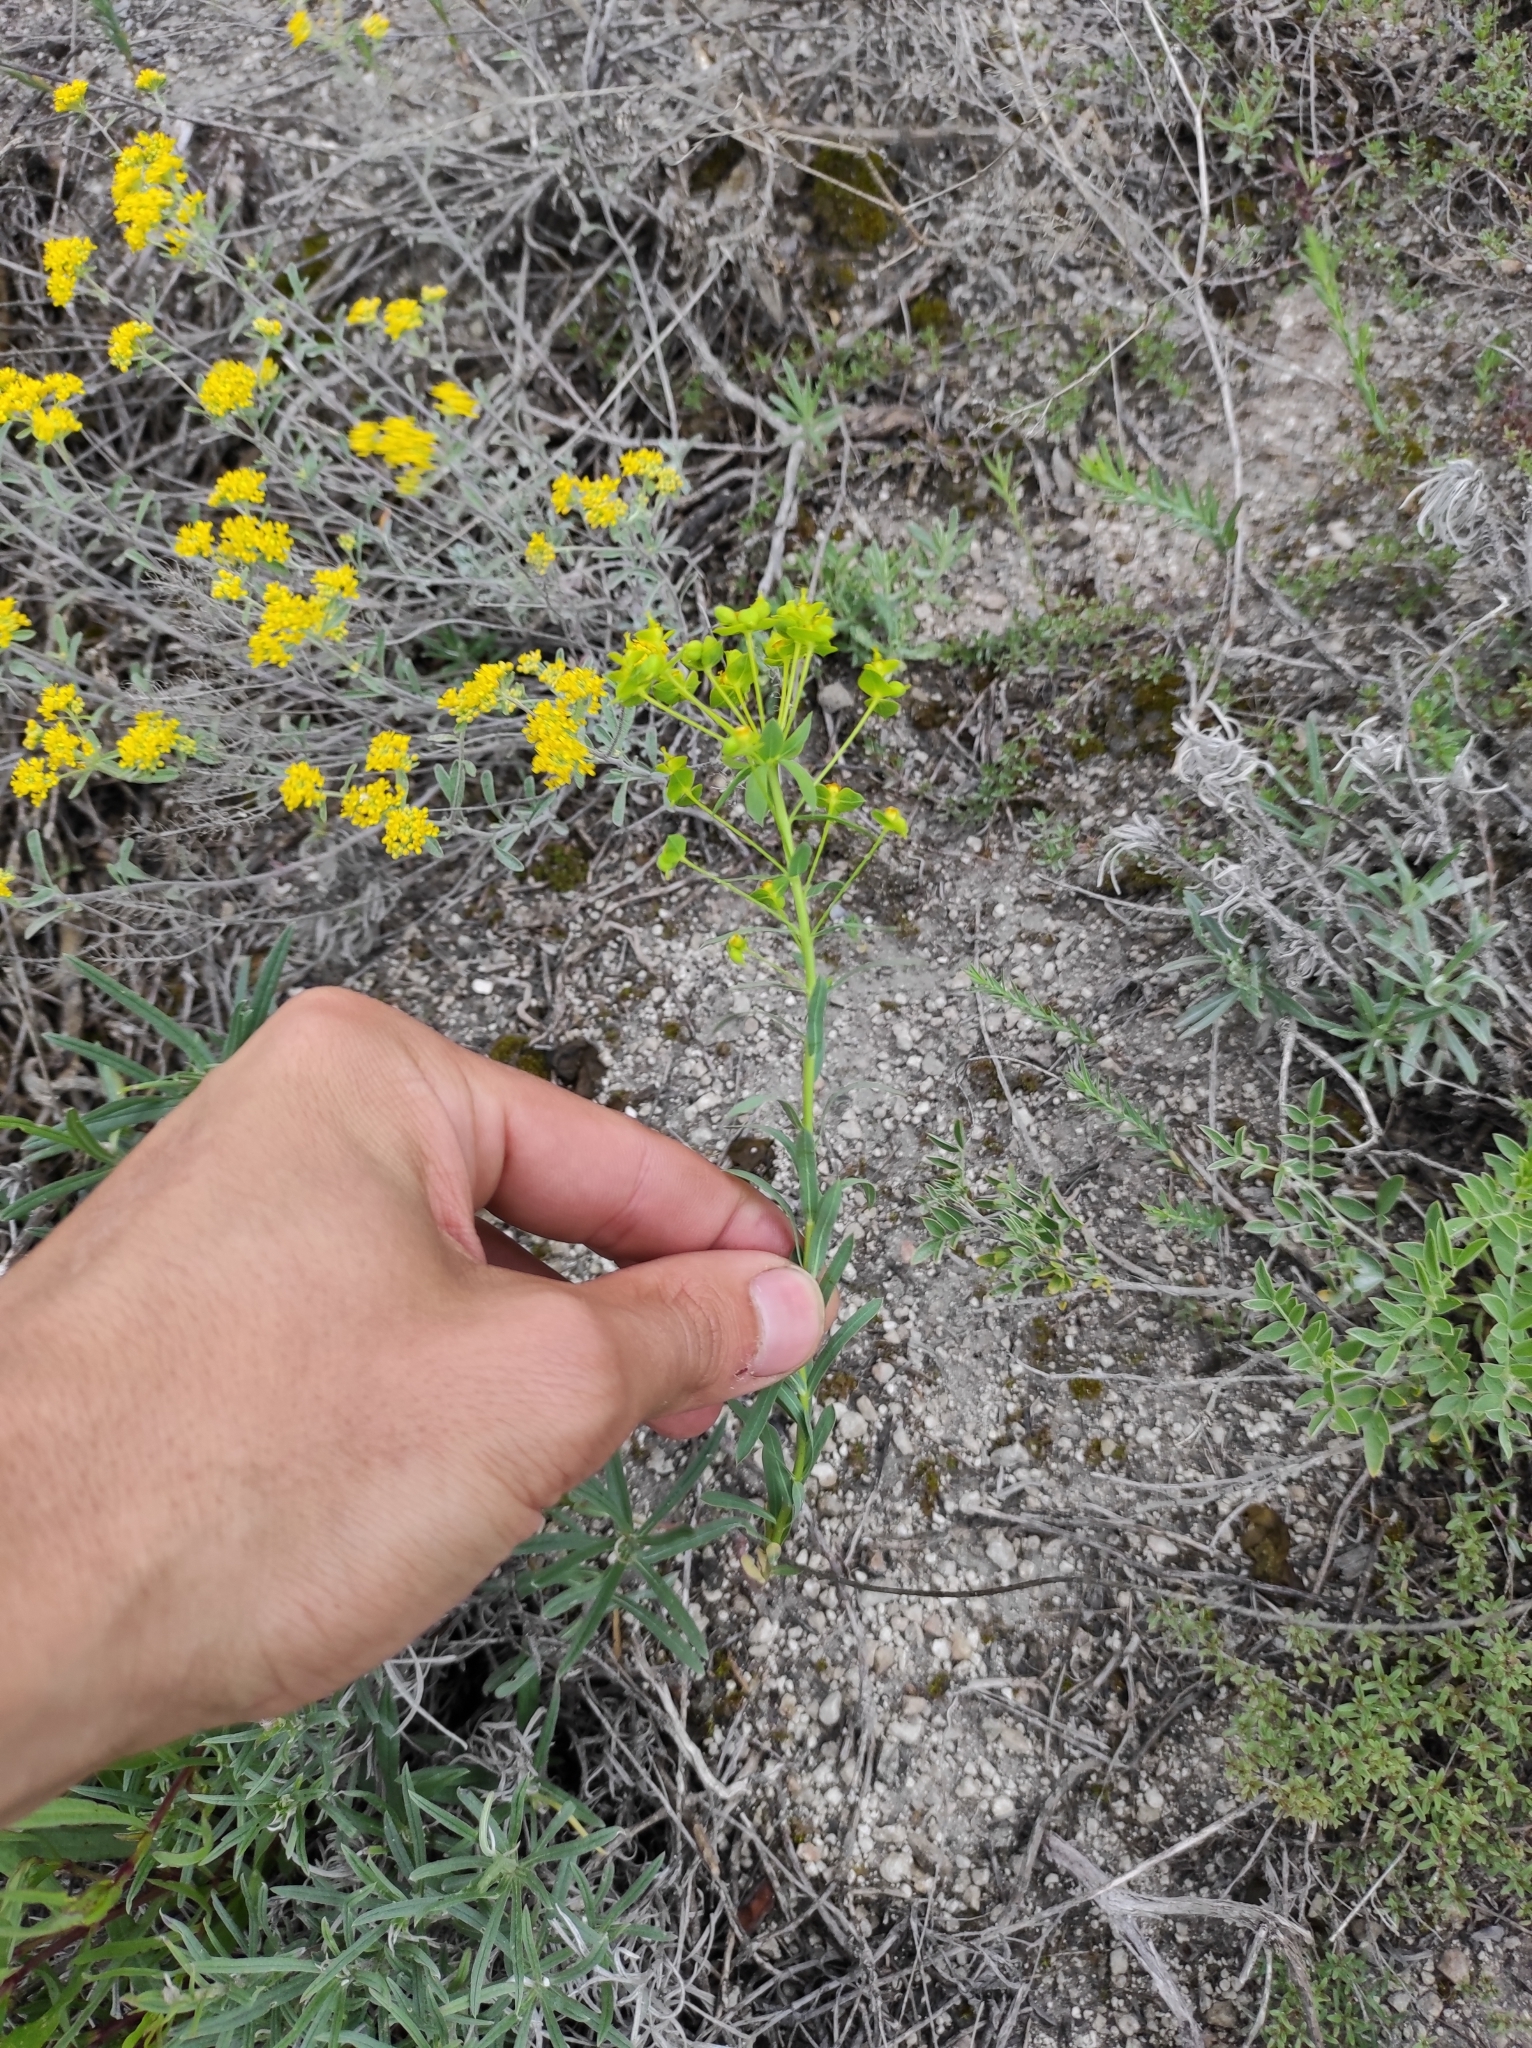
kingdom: Plantae
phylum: Tracheophyta
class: Magnoliopsida
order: Malpighiales
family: Euphorbiaceae
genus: Euphorbia
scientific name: Euphorbia seguieriana
